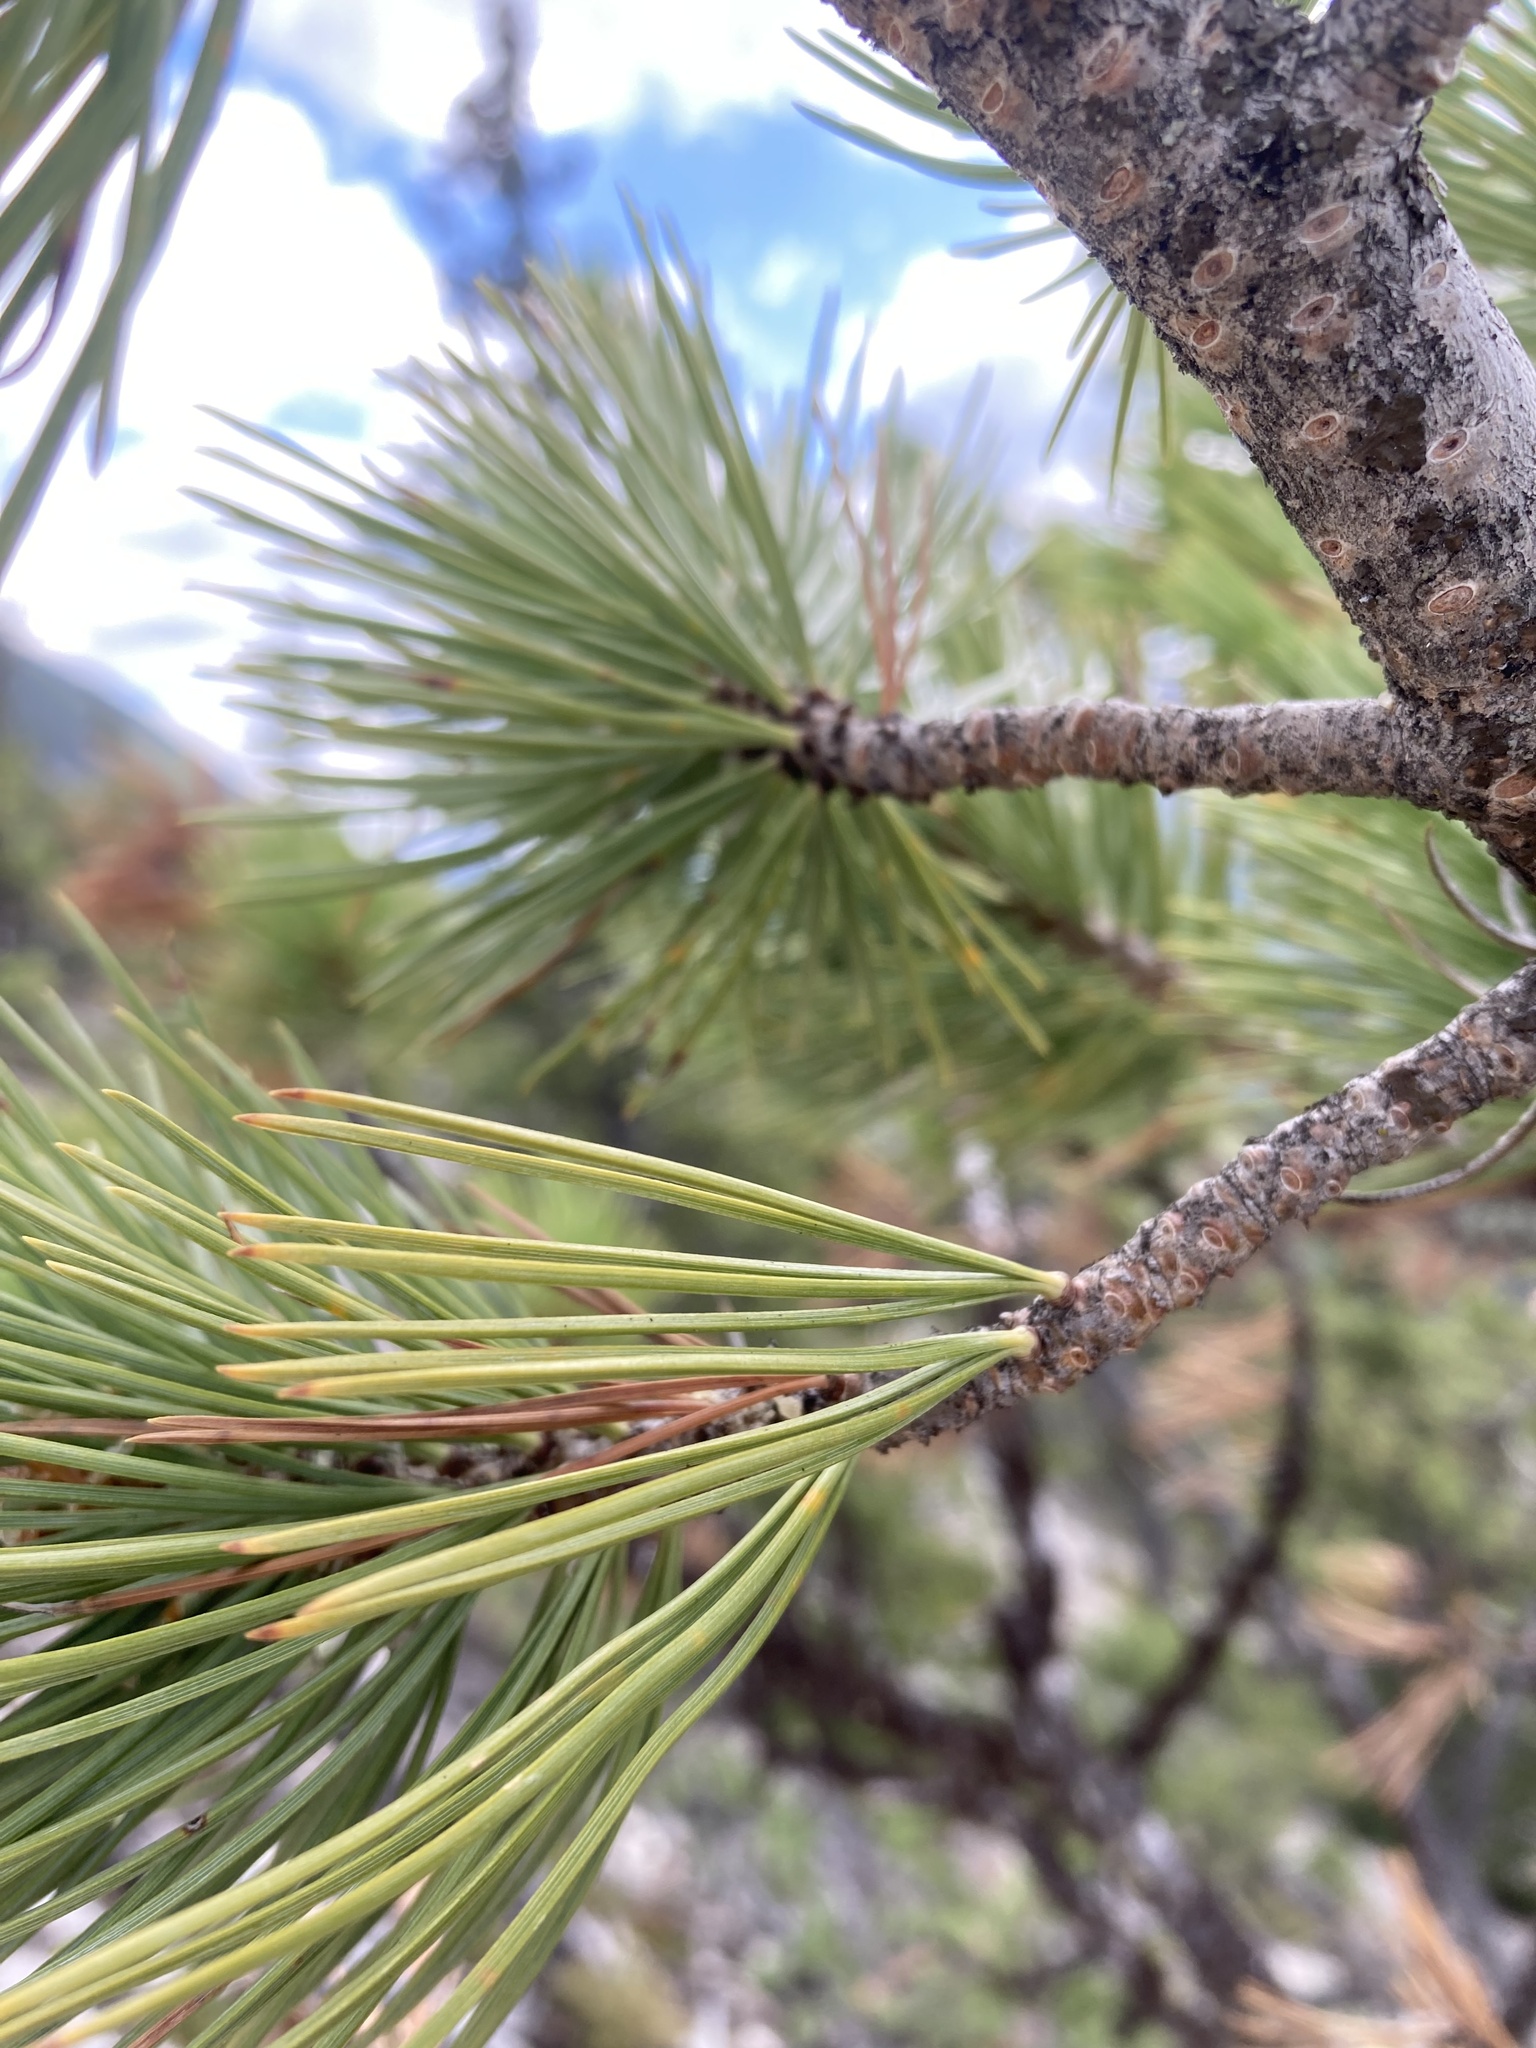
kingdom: Plantae
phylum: Tracheophyta
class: Pinopsida
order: Pinales
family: Pinaceae
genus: Pinus
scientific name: Pinus flexilis
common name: Limber pine
